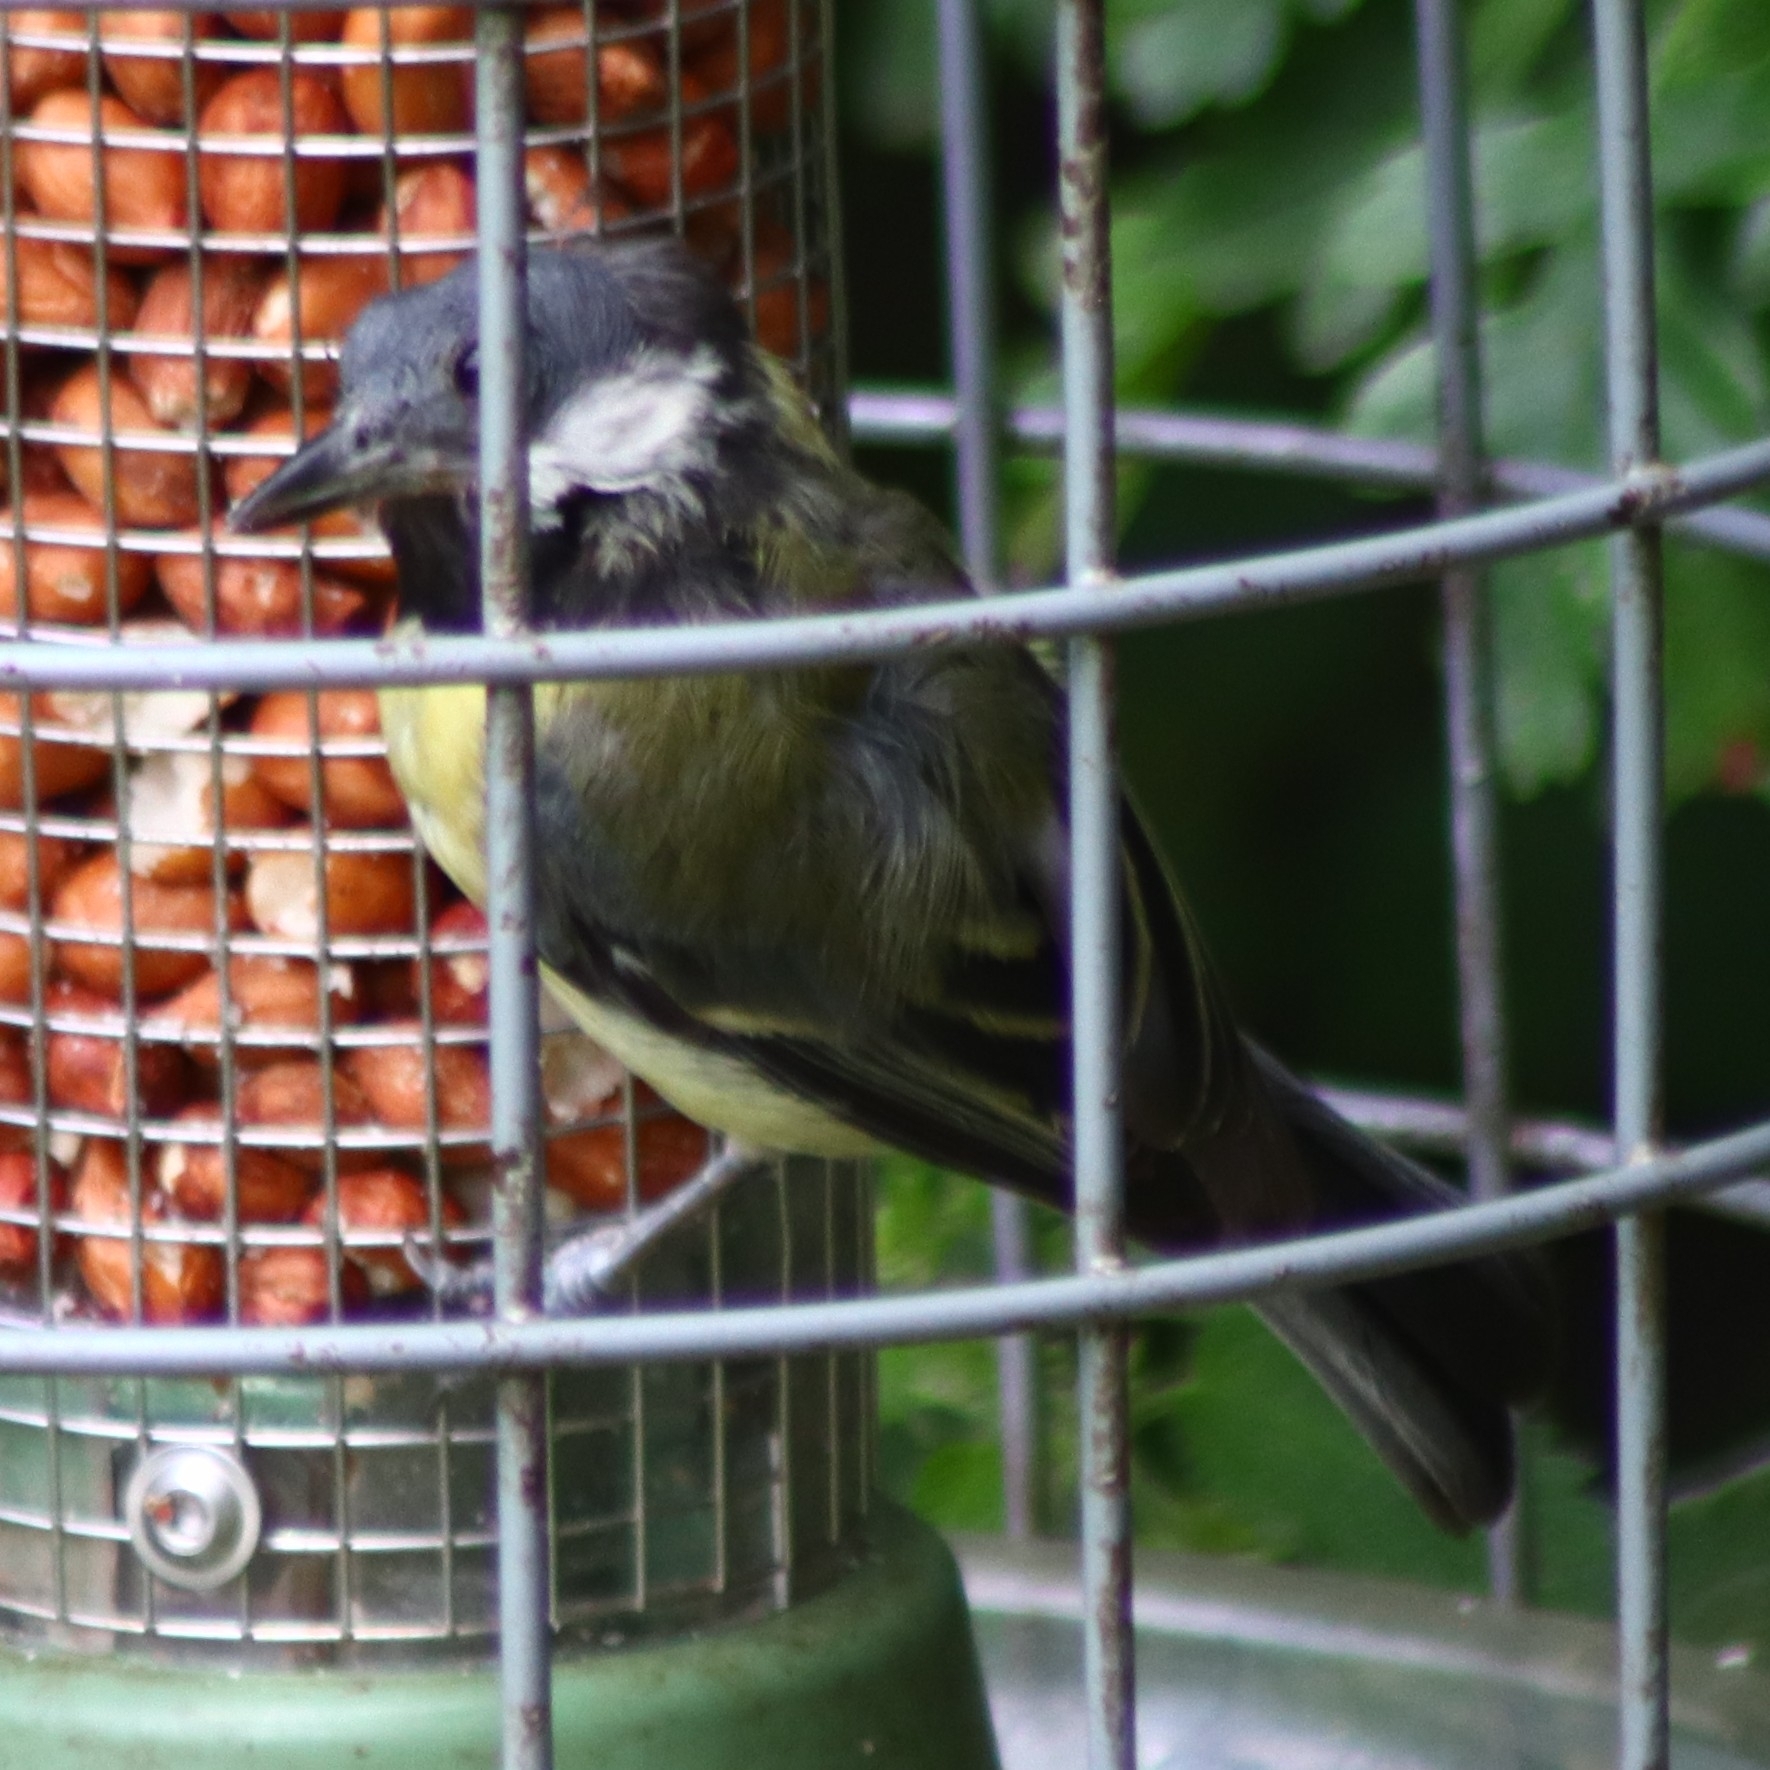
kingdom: Animalia
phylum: Chordata
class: Aves
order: Passeriformes
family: Paridae
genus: Parus
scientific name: Parus major
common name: Great tit
